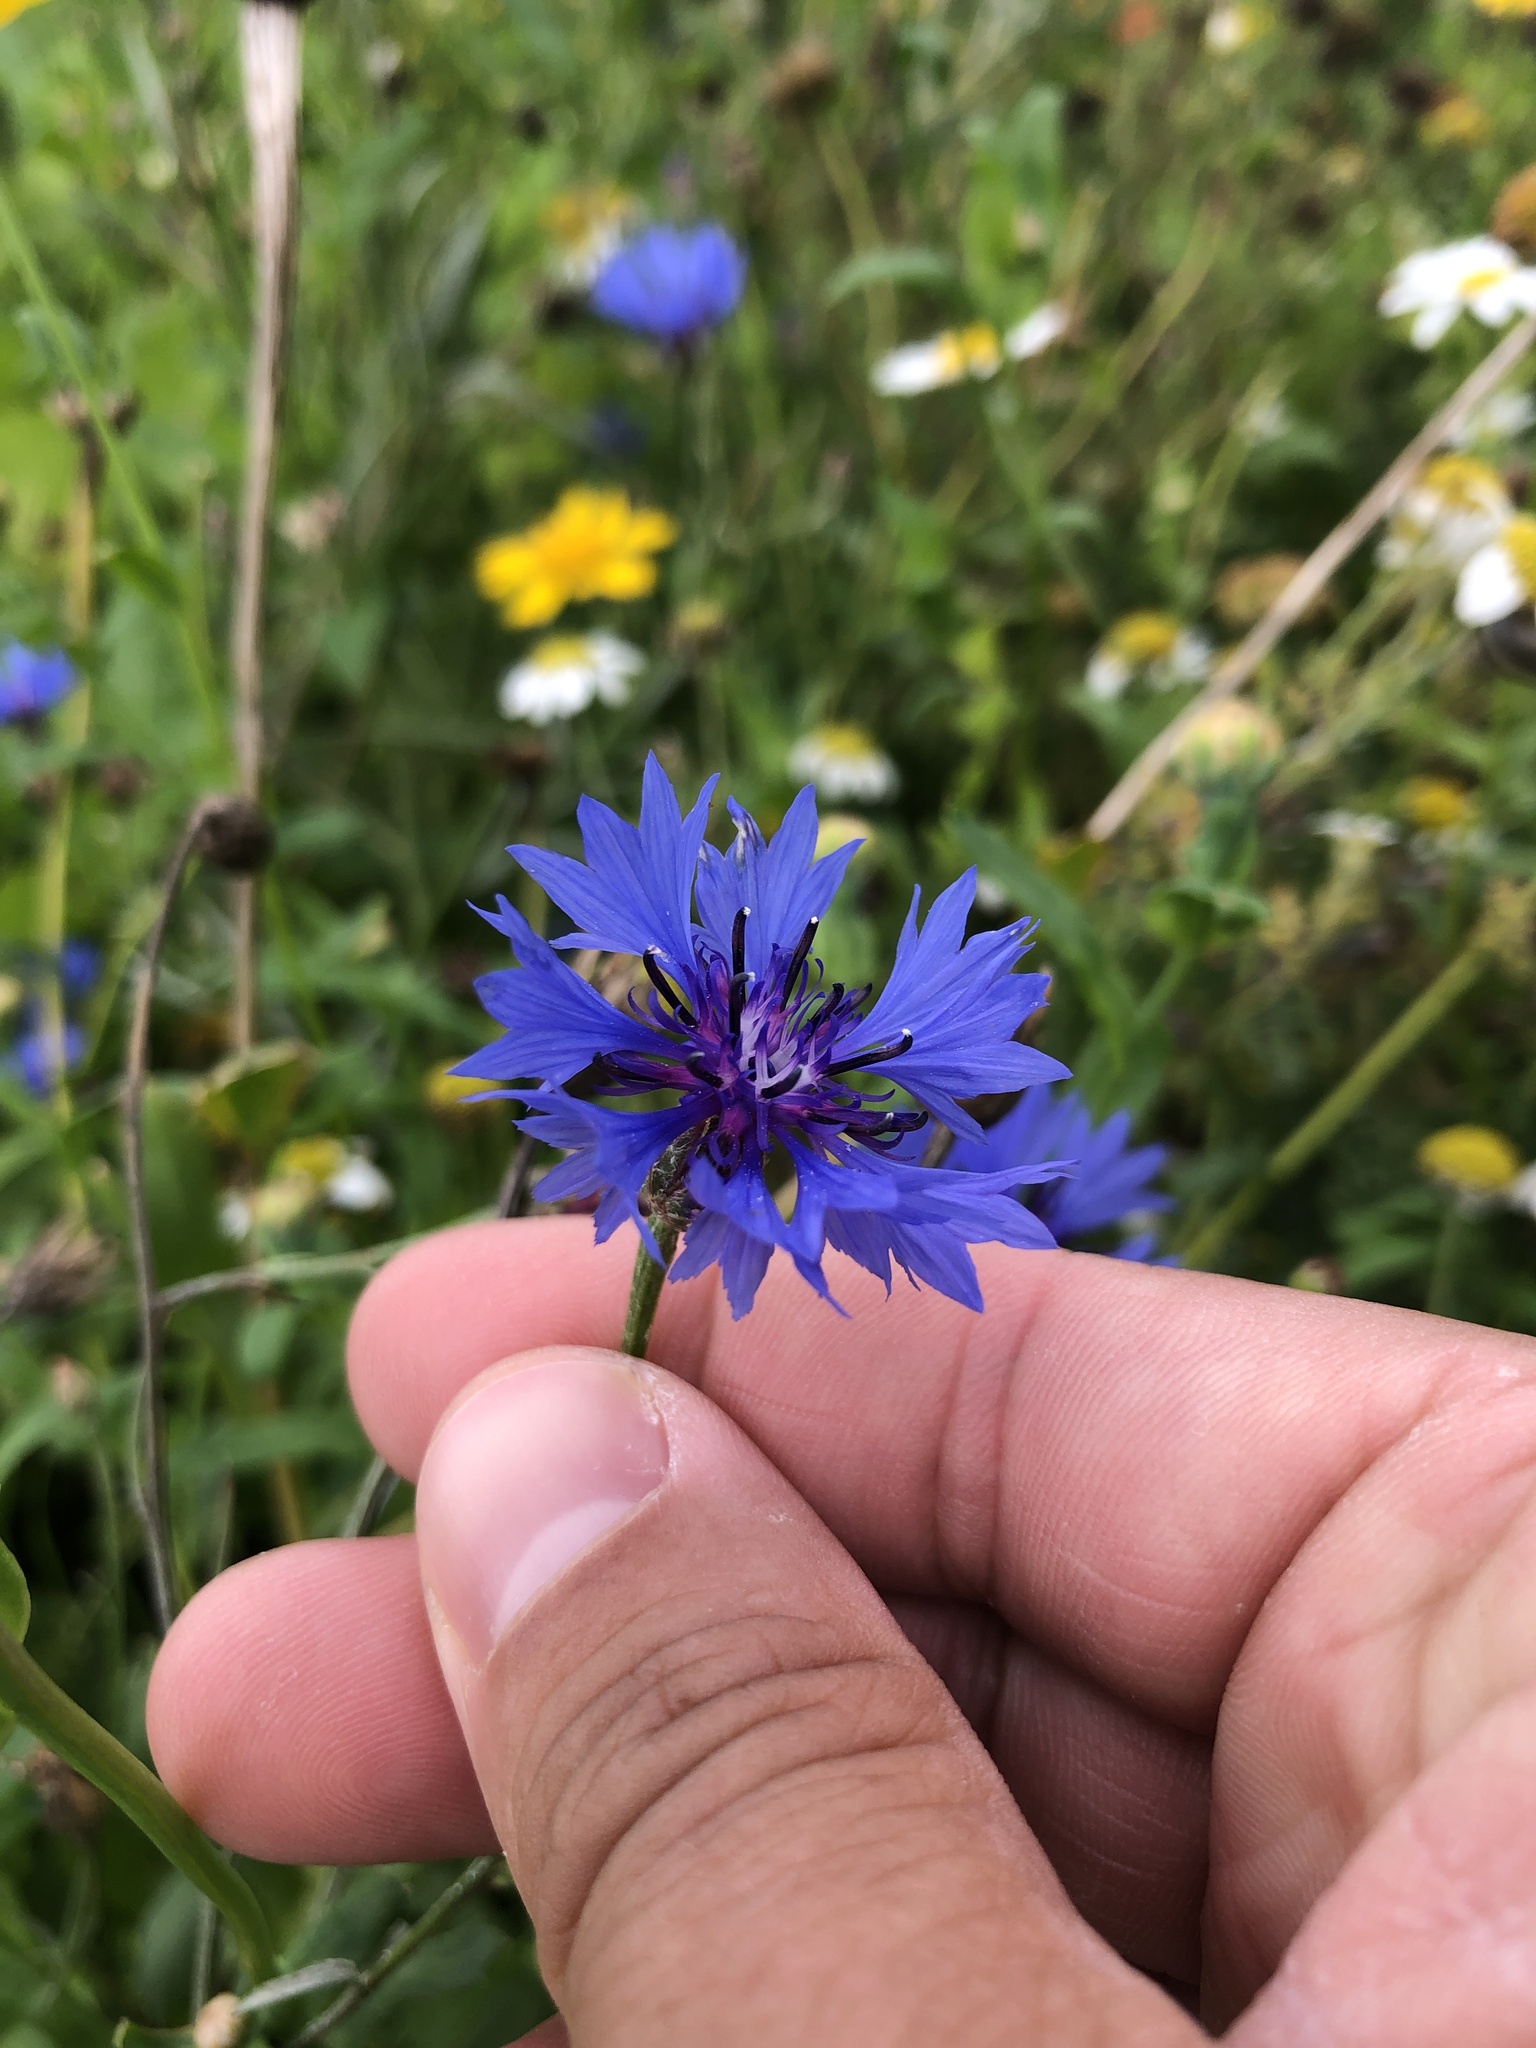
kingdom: Plantae
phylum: Tracheophyta
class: Magnoliopsida
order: Asterales
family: Asteraceae
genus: Centaurea
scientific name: Centaurea cyanus
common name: Cornflower
